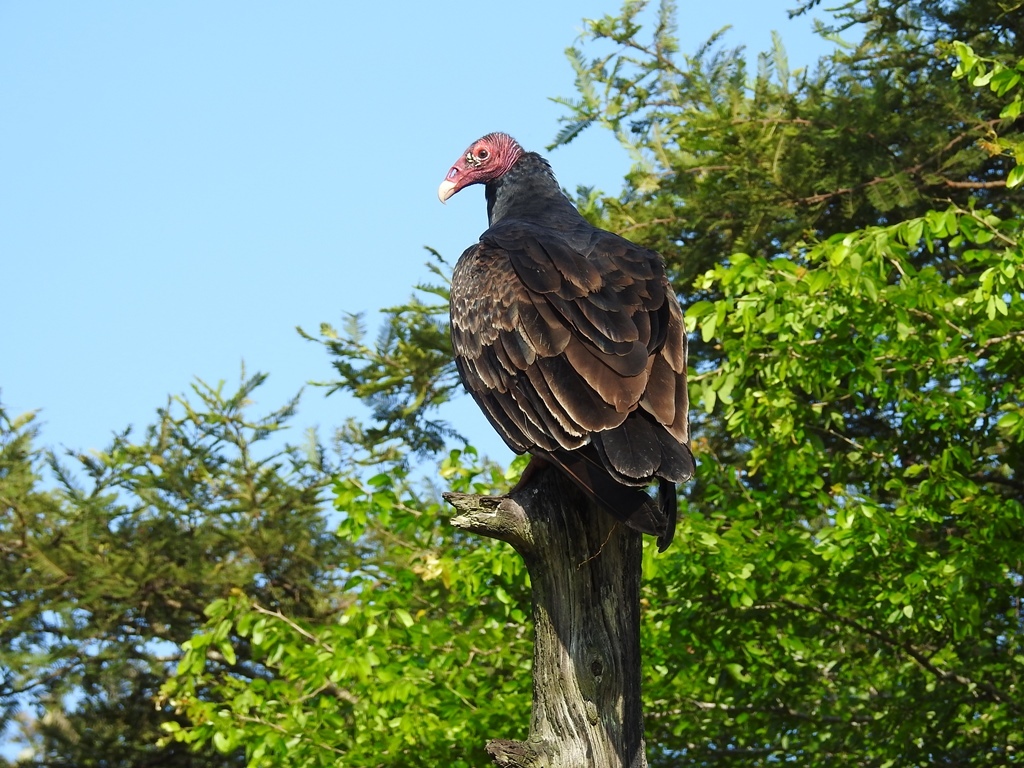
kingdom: Animalia
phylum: Chordata
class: Aves
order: Accipitriformes
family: Cathartidae
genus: Cathartes
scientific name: Cathartes aura
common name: Turkey vulture
